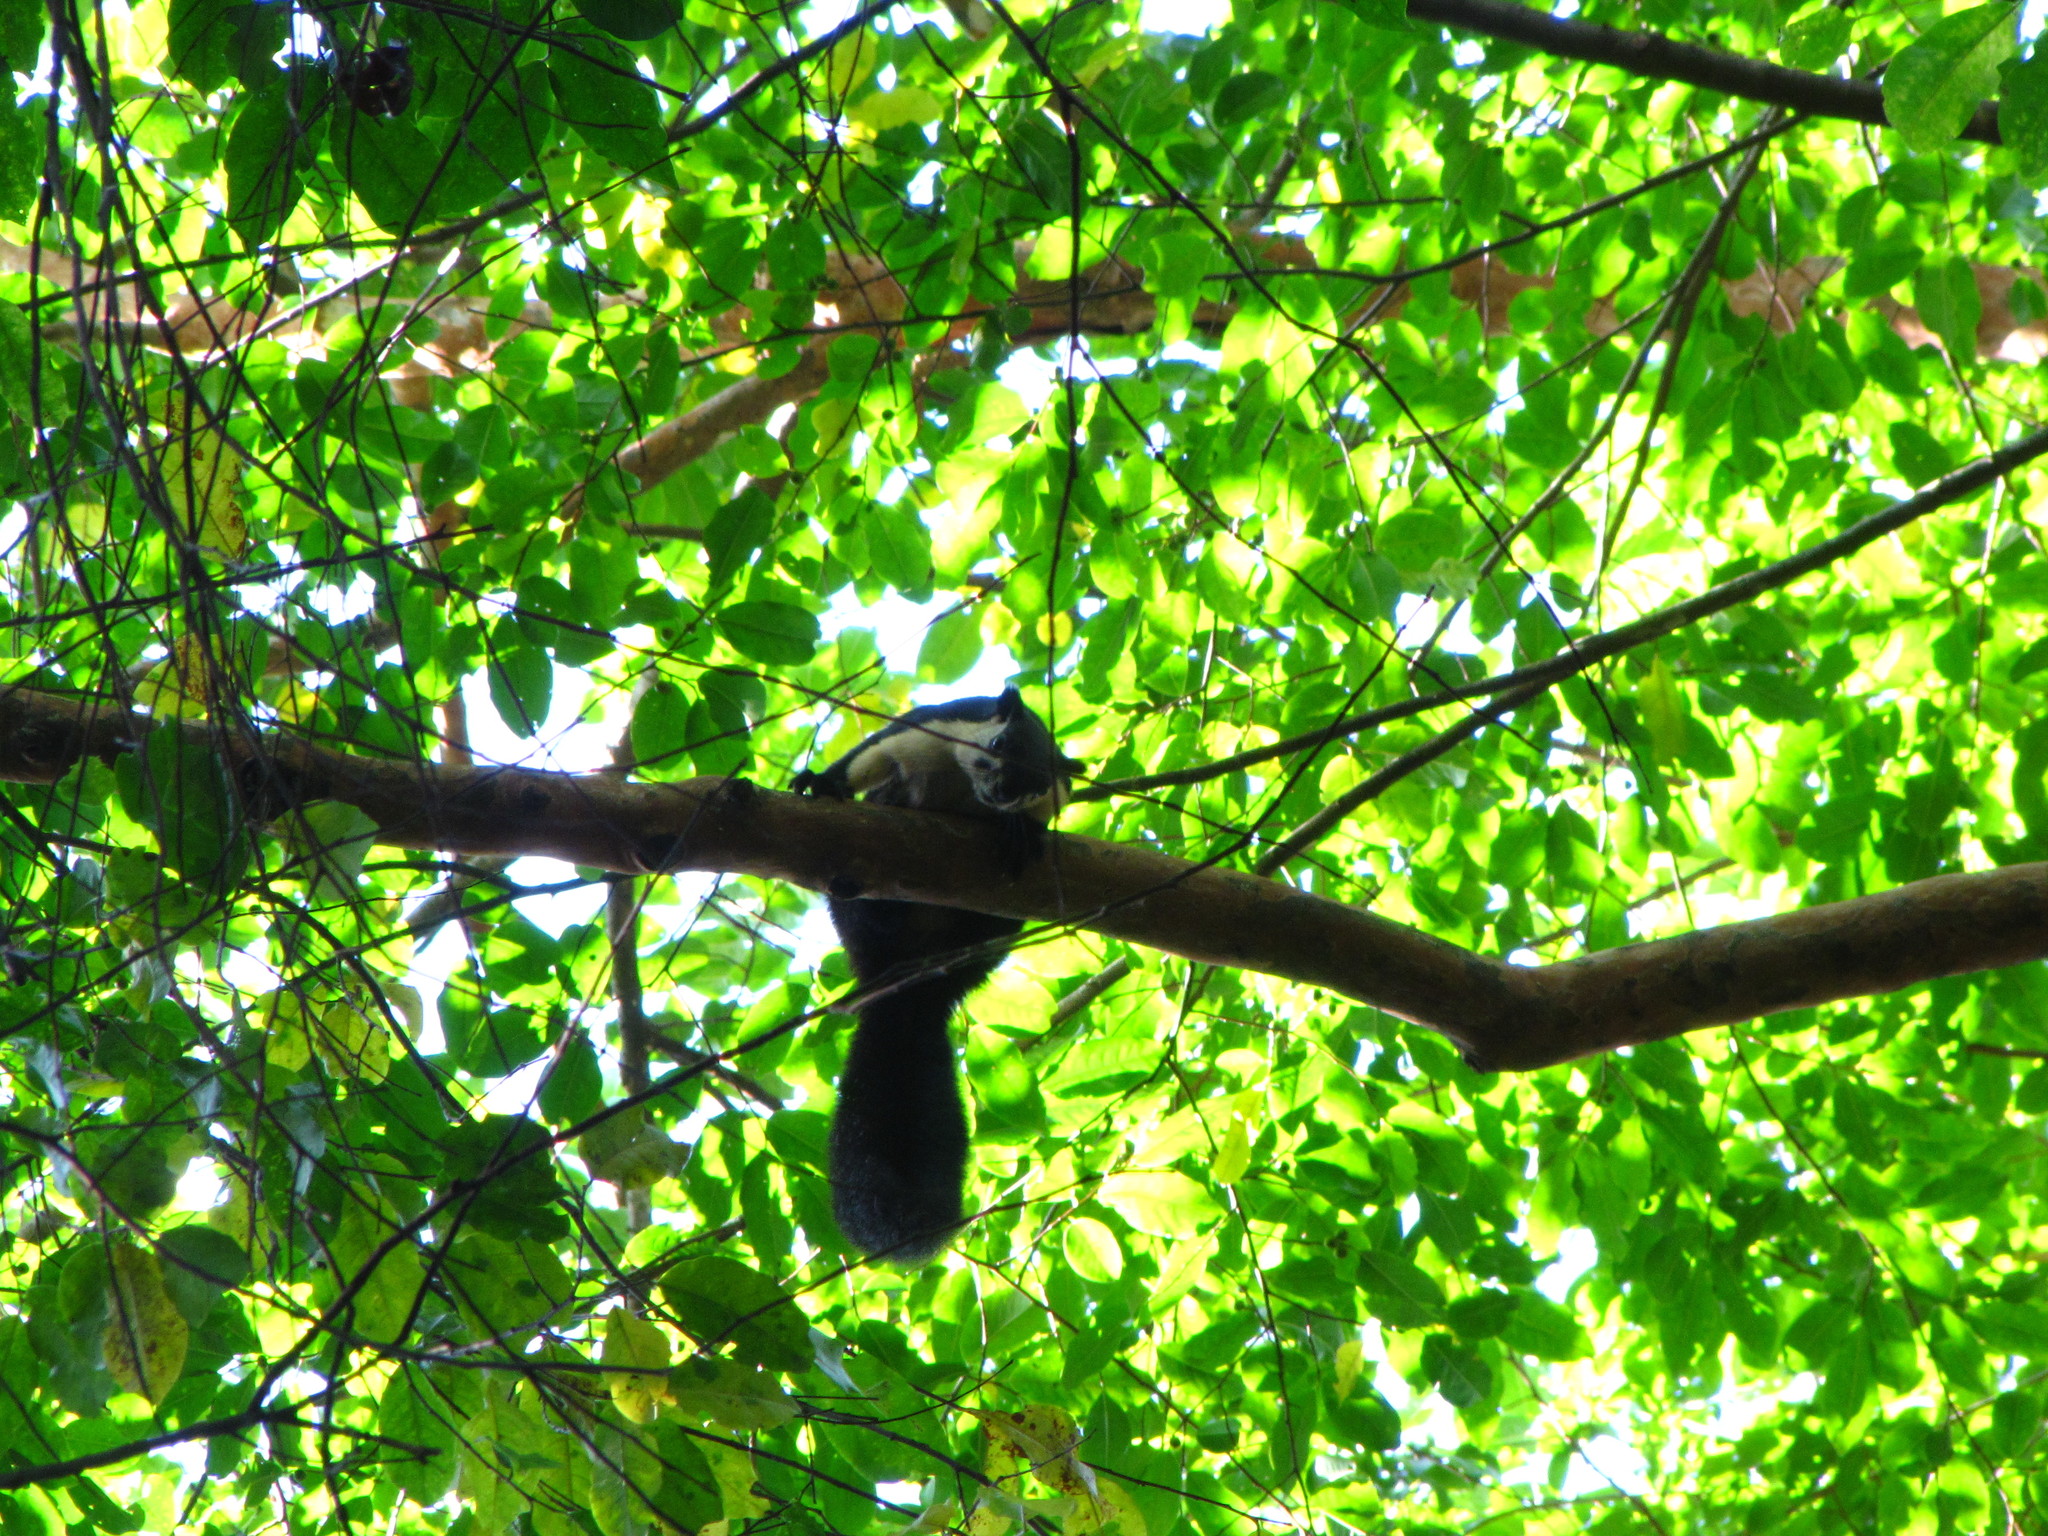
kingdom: Animalia
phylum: Chordata
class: Mammalia
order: Rodentia
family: Sciuridae
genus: Ratufa
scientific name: Ratufa bicolor
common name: Black giant squirrel
